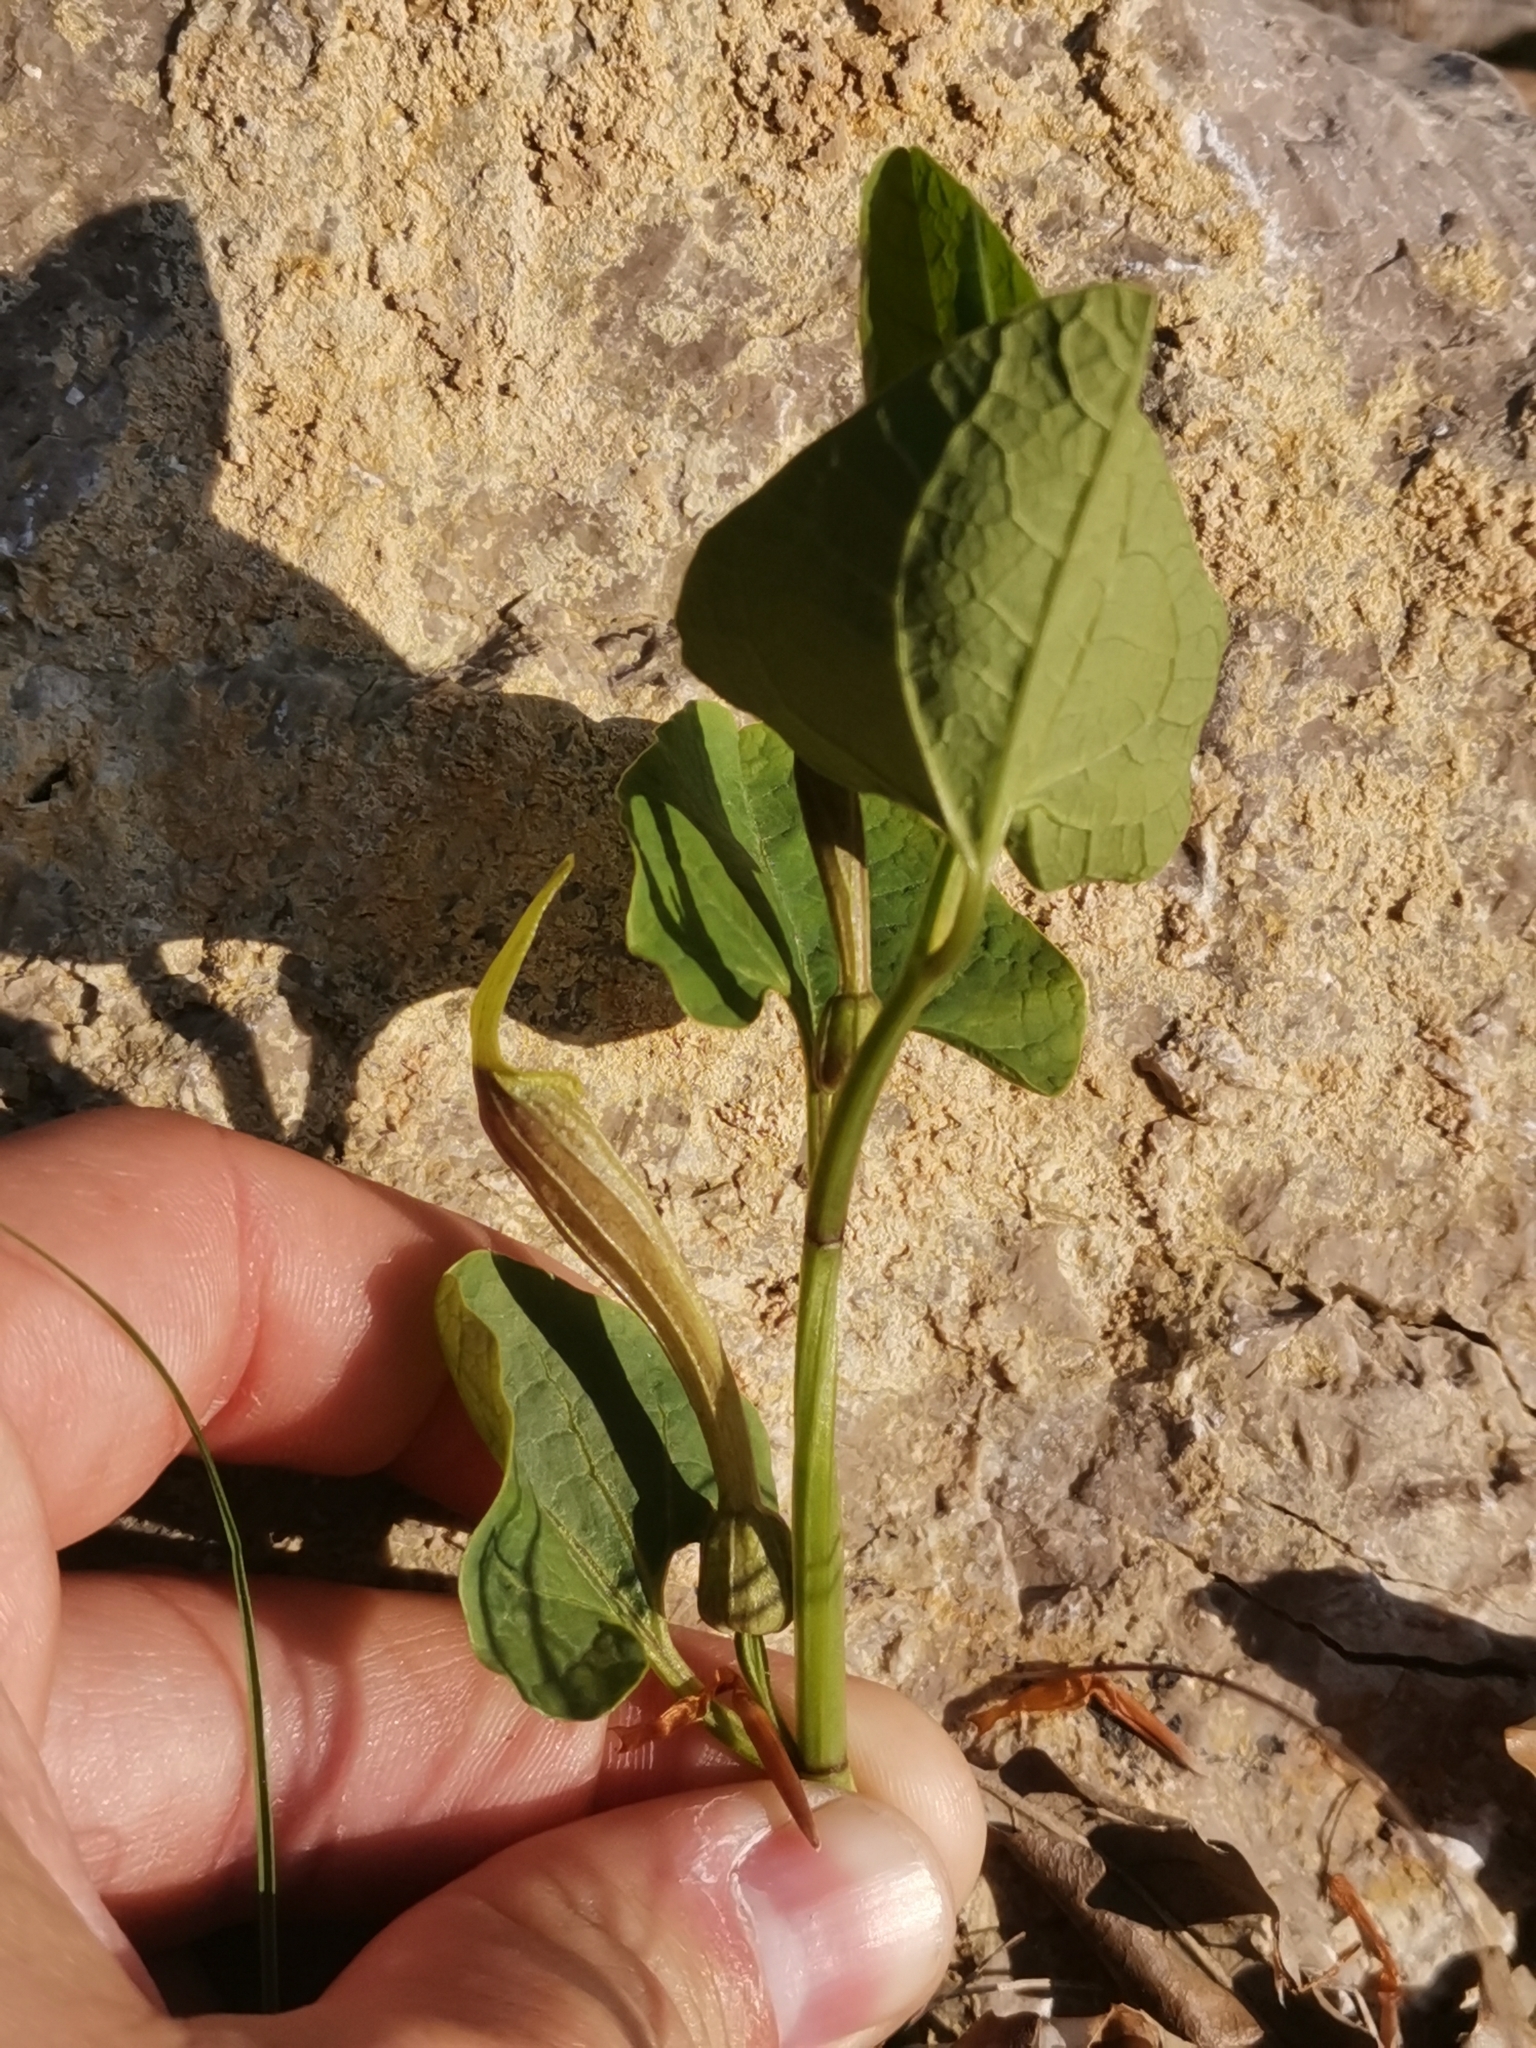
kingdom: Plantae
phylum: Tracheophyta
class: Magnoliopsida
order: Piperales
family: Aristolochiaceae
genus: Aristolochia
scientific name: Aristolochia lutea
